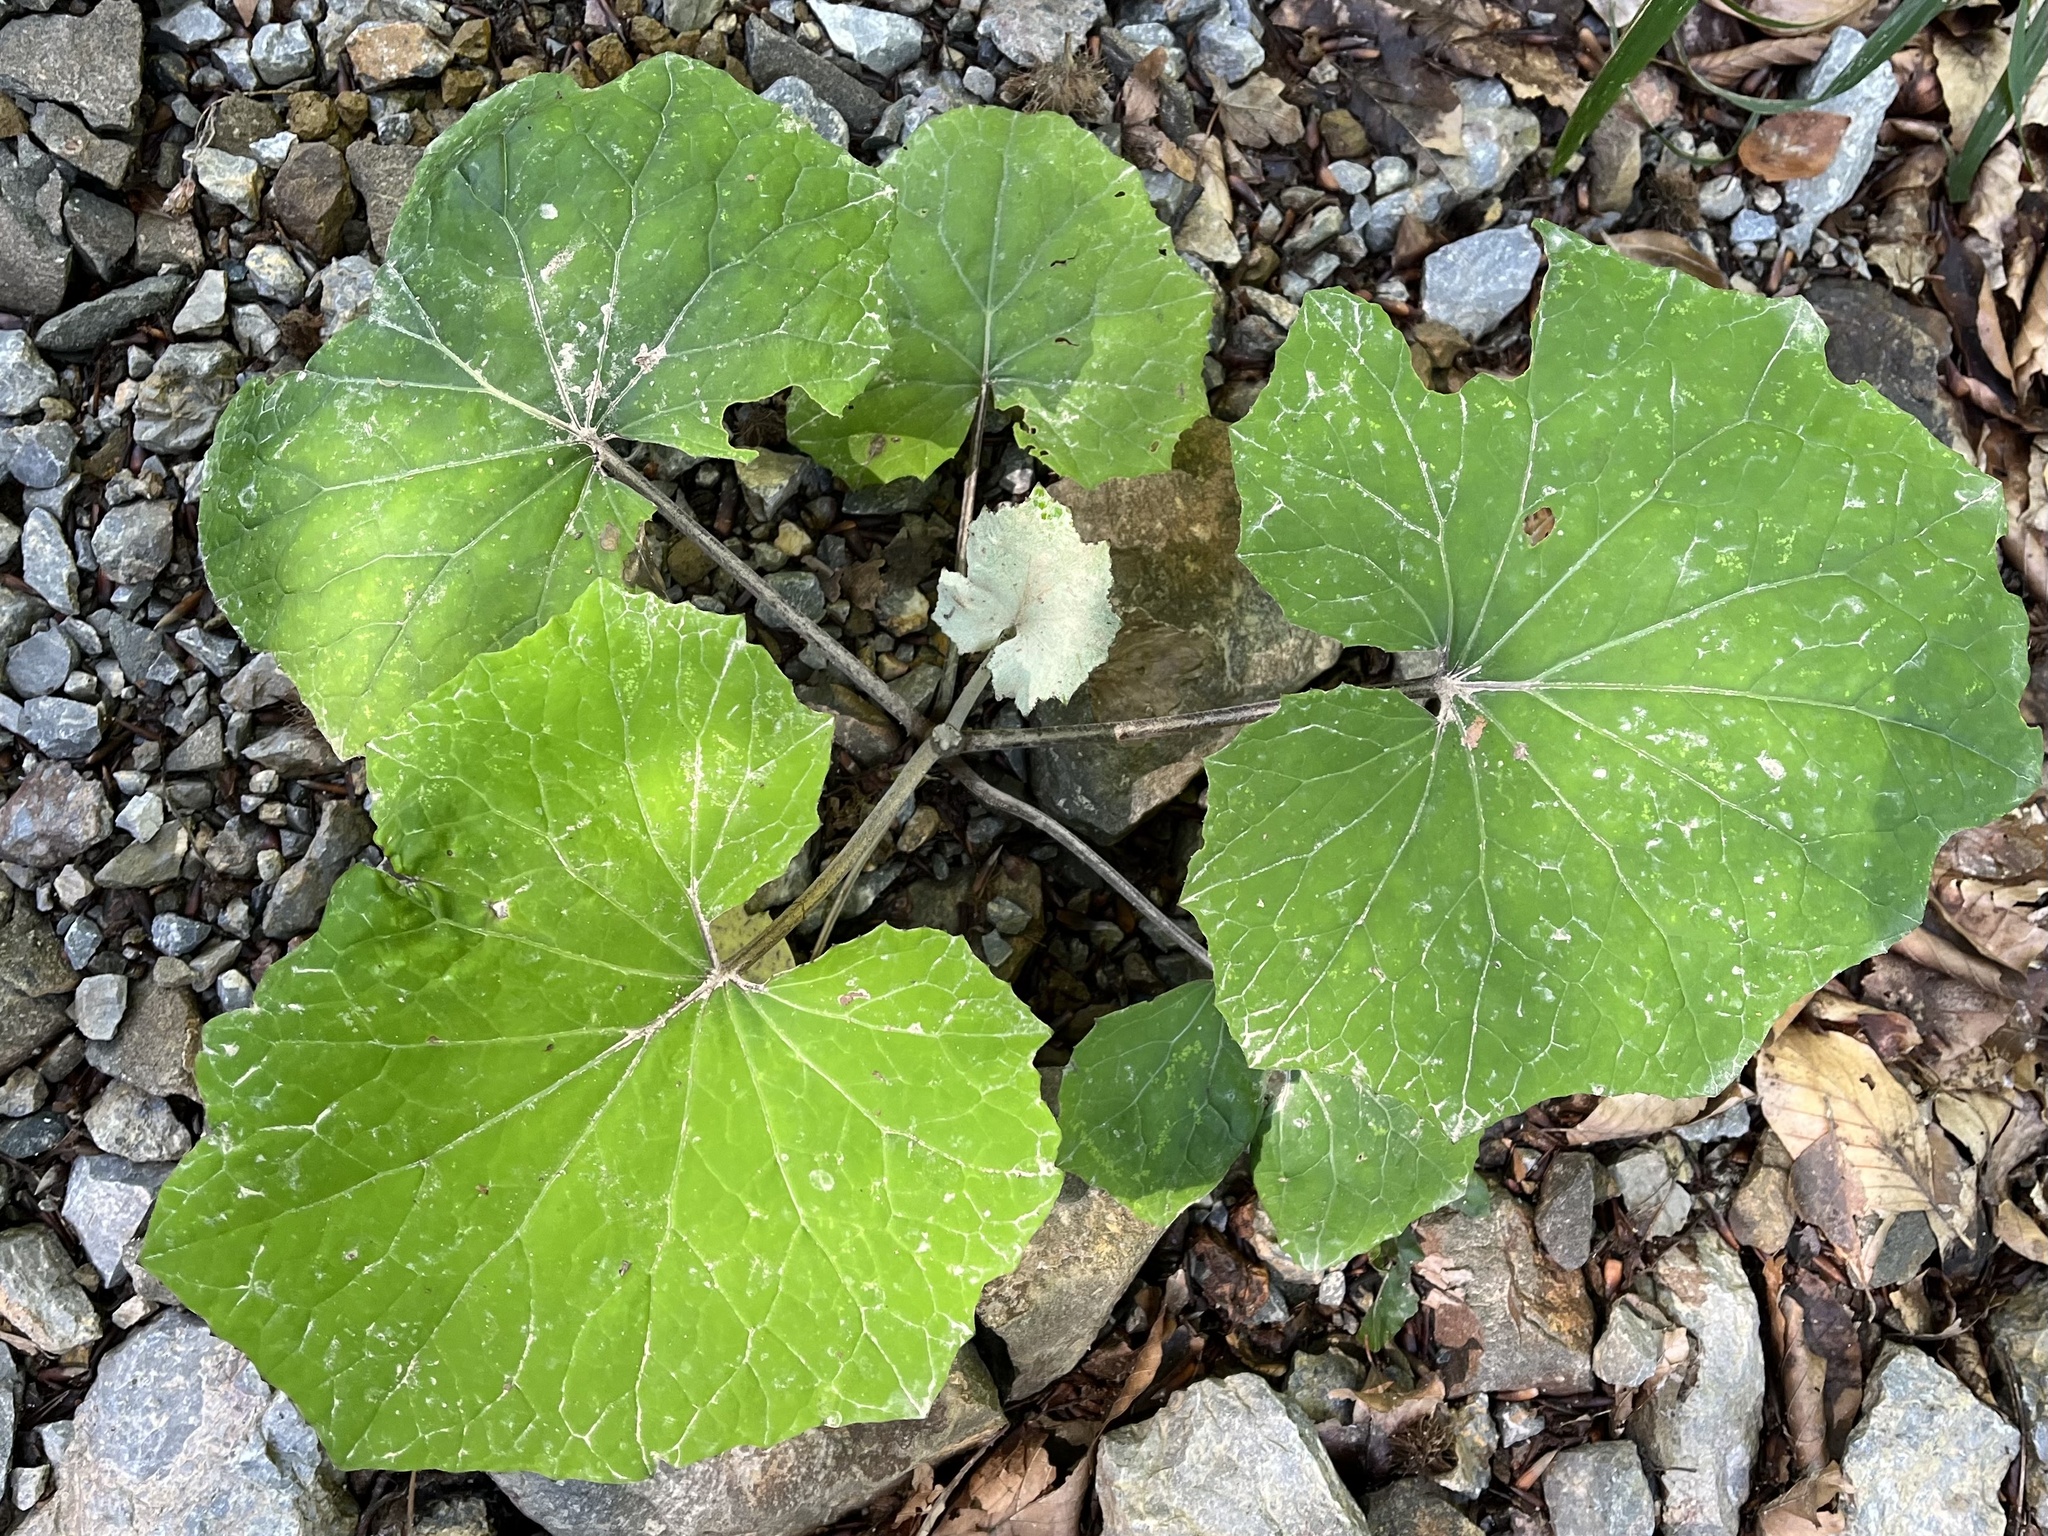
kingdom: Plantae
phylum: Tracheophyta
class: Magnoliopsida
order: Asterales
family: Asteraceae
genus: Tussilago
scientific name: Tussilago farfara
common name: Coltsfoot
